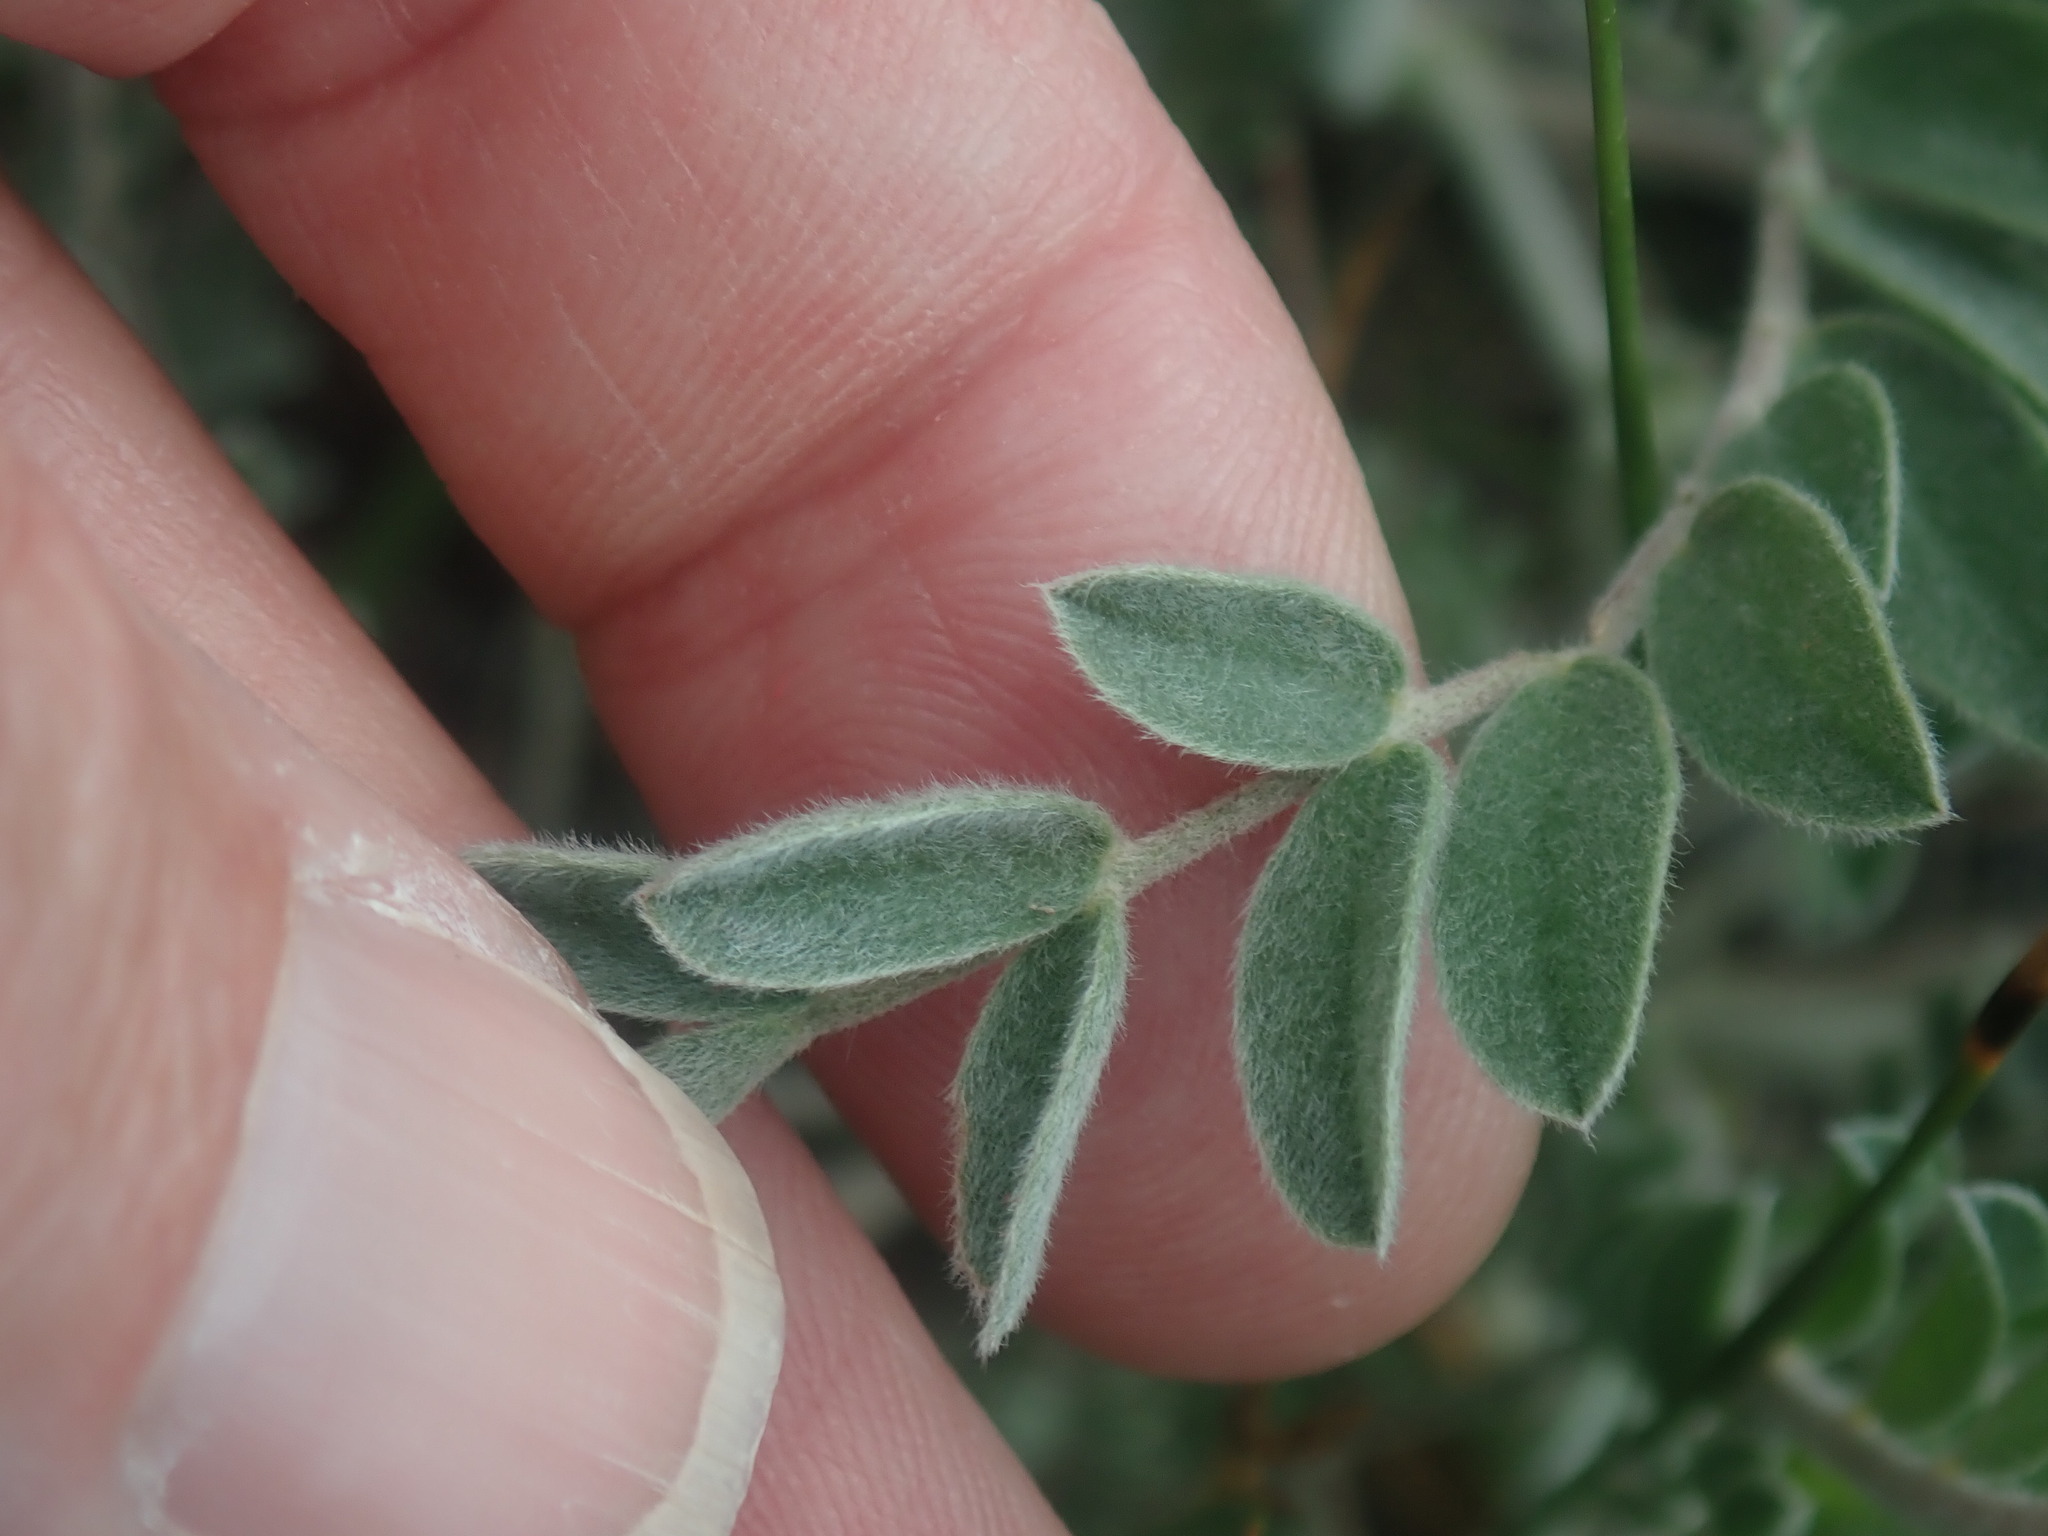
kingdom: Plantae
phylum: Tracheophyta
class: Magnoliopsida
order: Fabales
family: Fabaceae
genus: Astragalus
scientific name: Astragalus mollissimus
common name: Woolly locoweed
